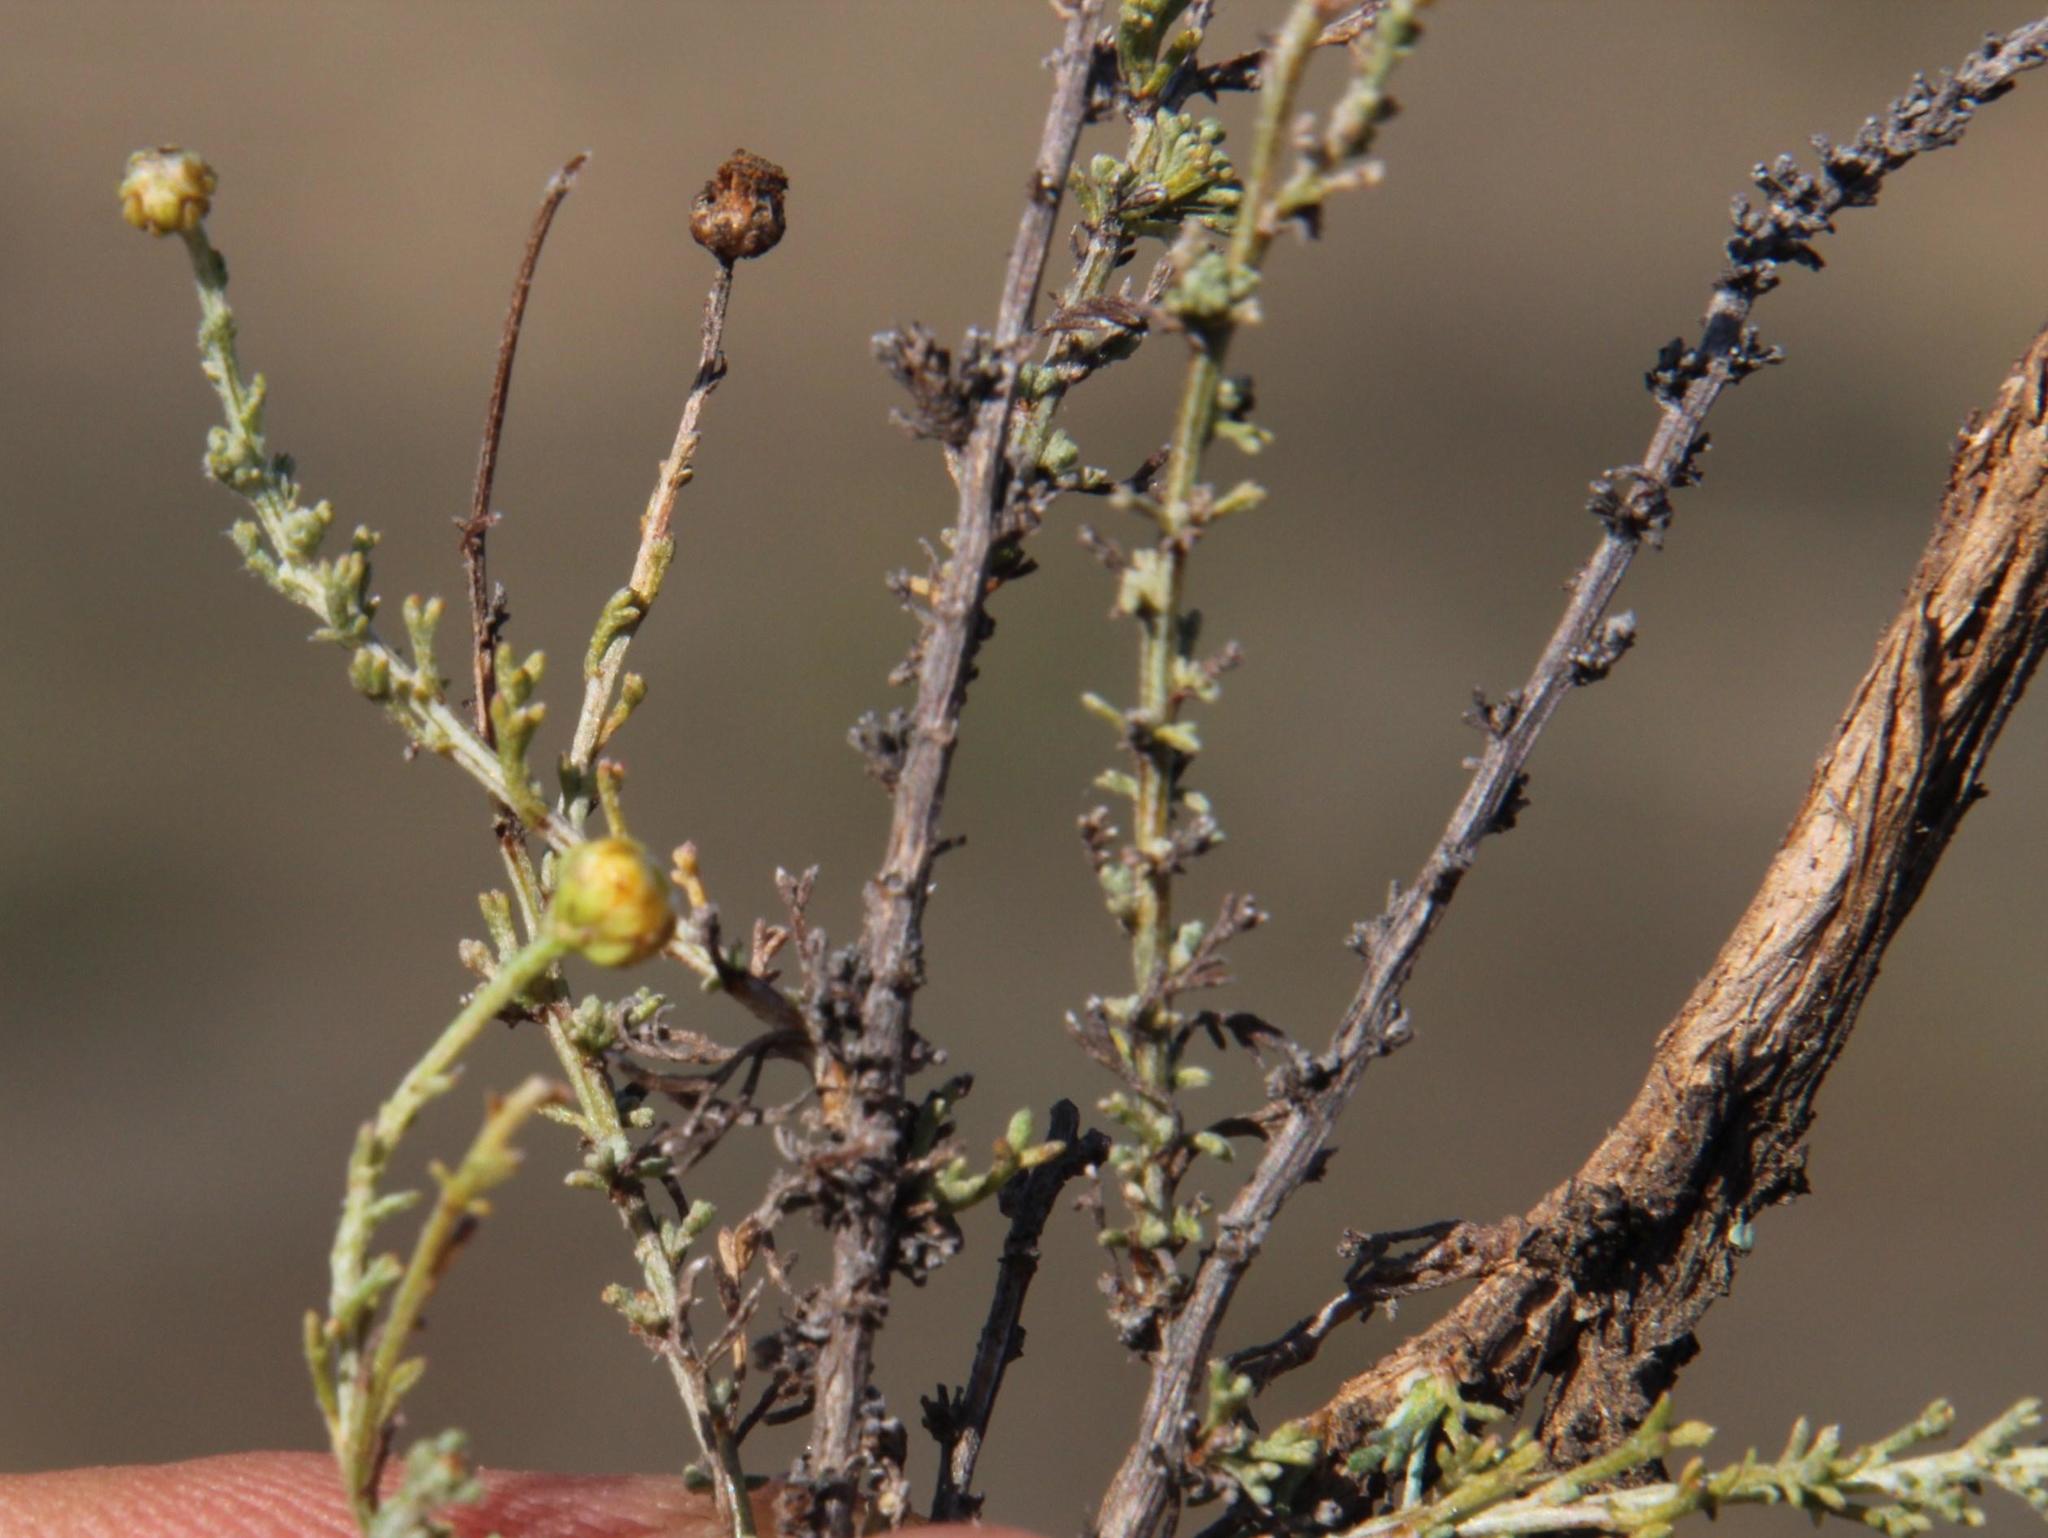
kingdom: Plantae
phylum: Tracheophyta
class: Magnoliopsida
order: Asterales
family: Asteraceae
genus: Pentzia
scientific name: Pentzia incana
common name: African sheepbush
